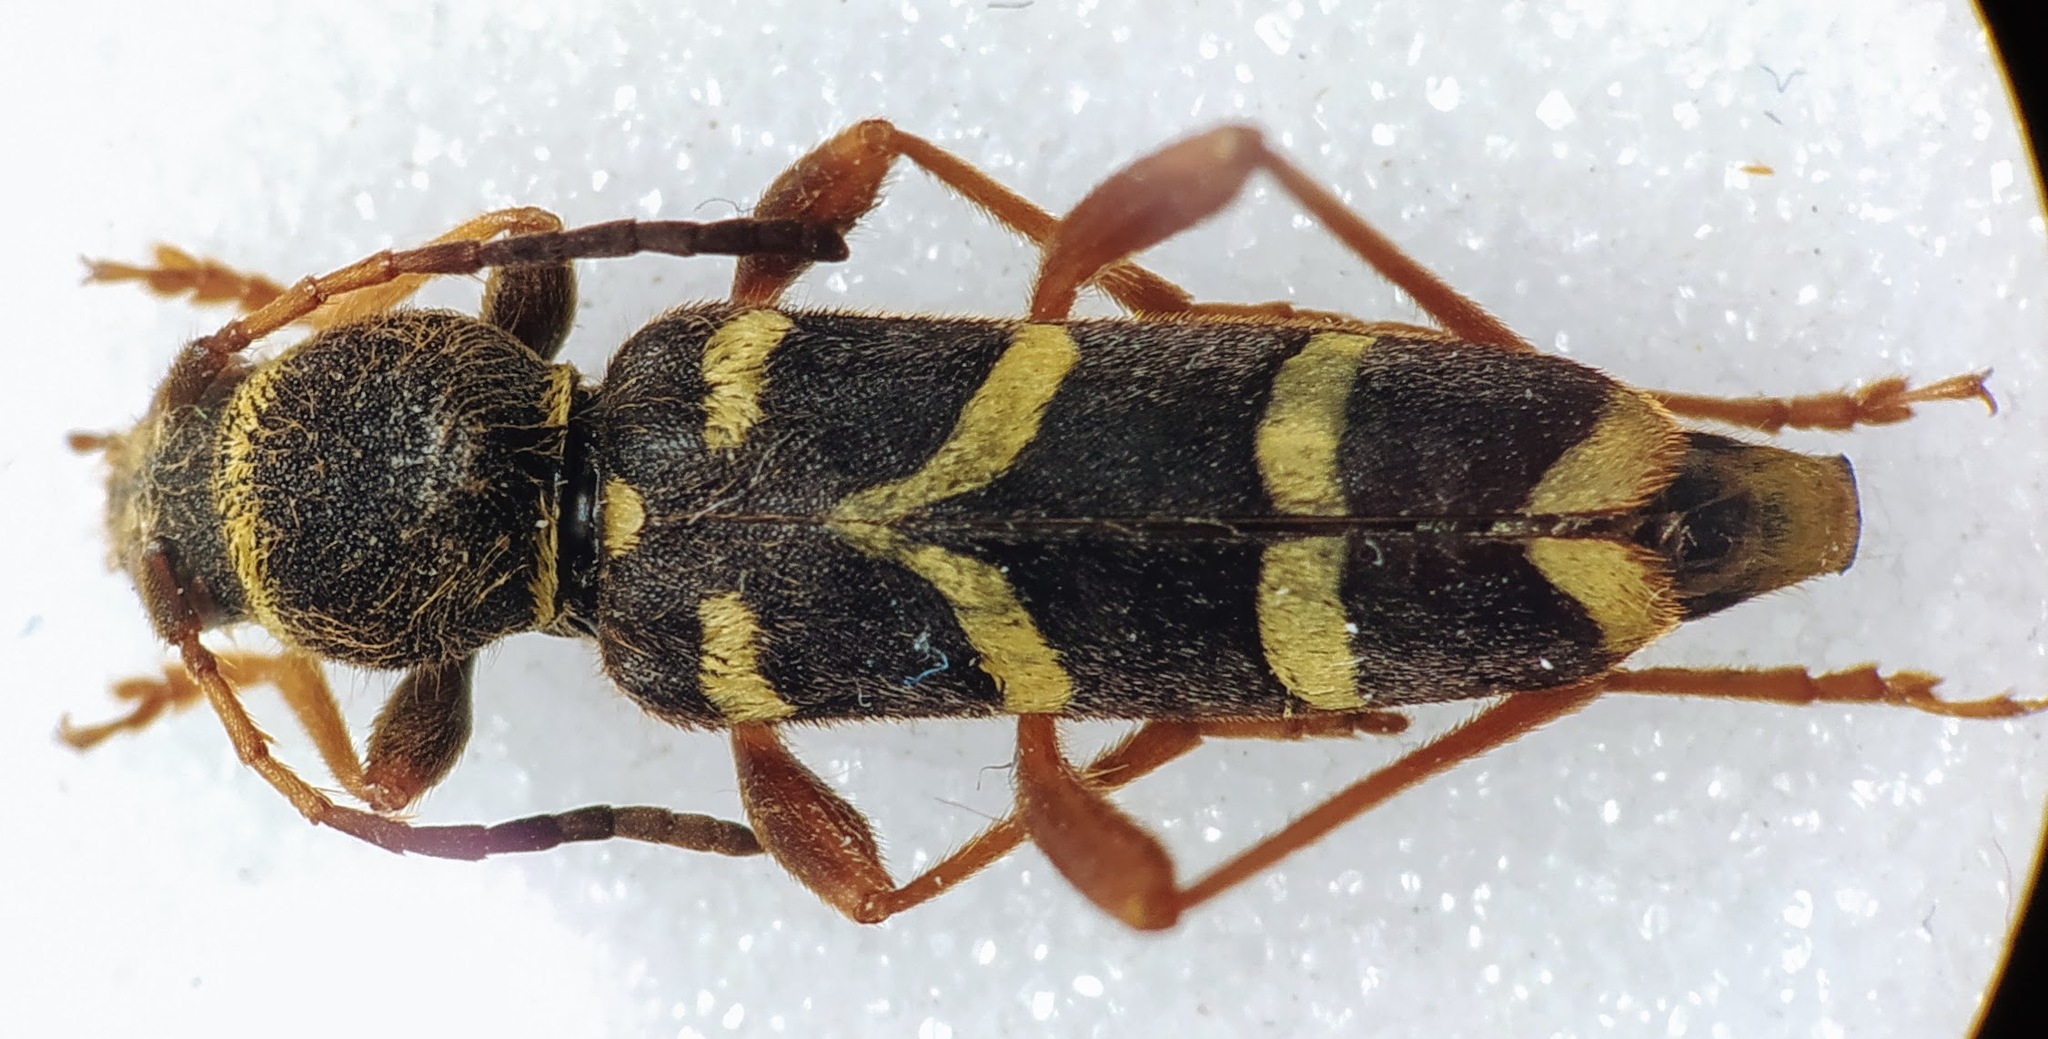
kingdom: Animalia
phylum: Arthropoda
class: Insecta
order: Coleoptera
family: Cerambycidae
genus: Clytus
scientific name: Clytus arietis
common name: Wasp beetle
